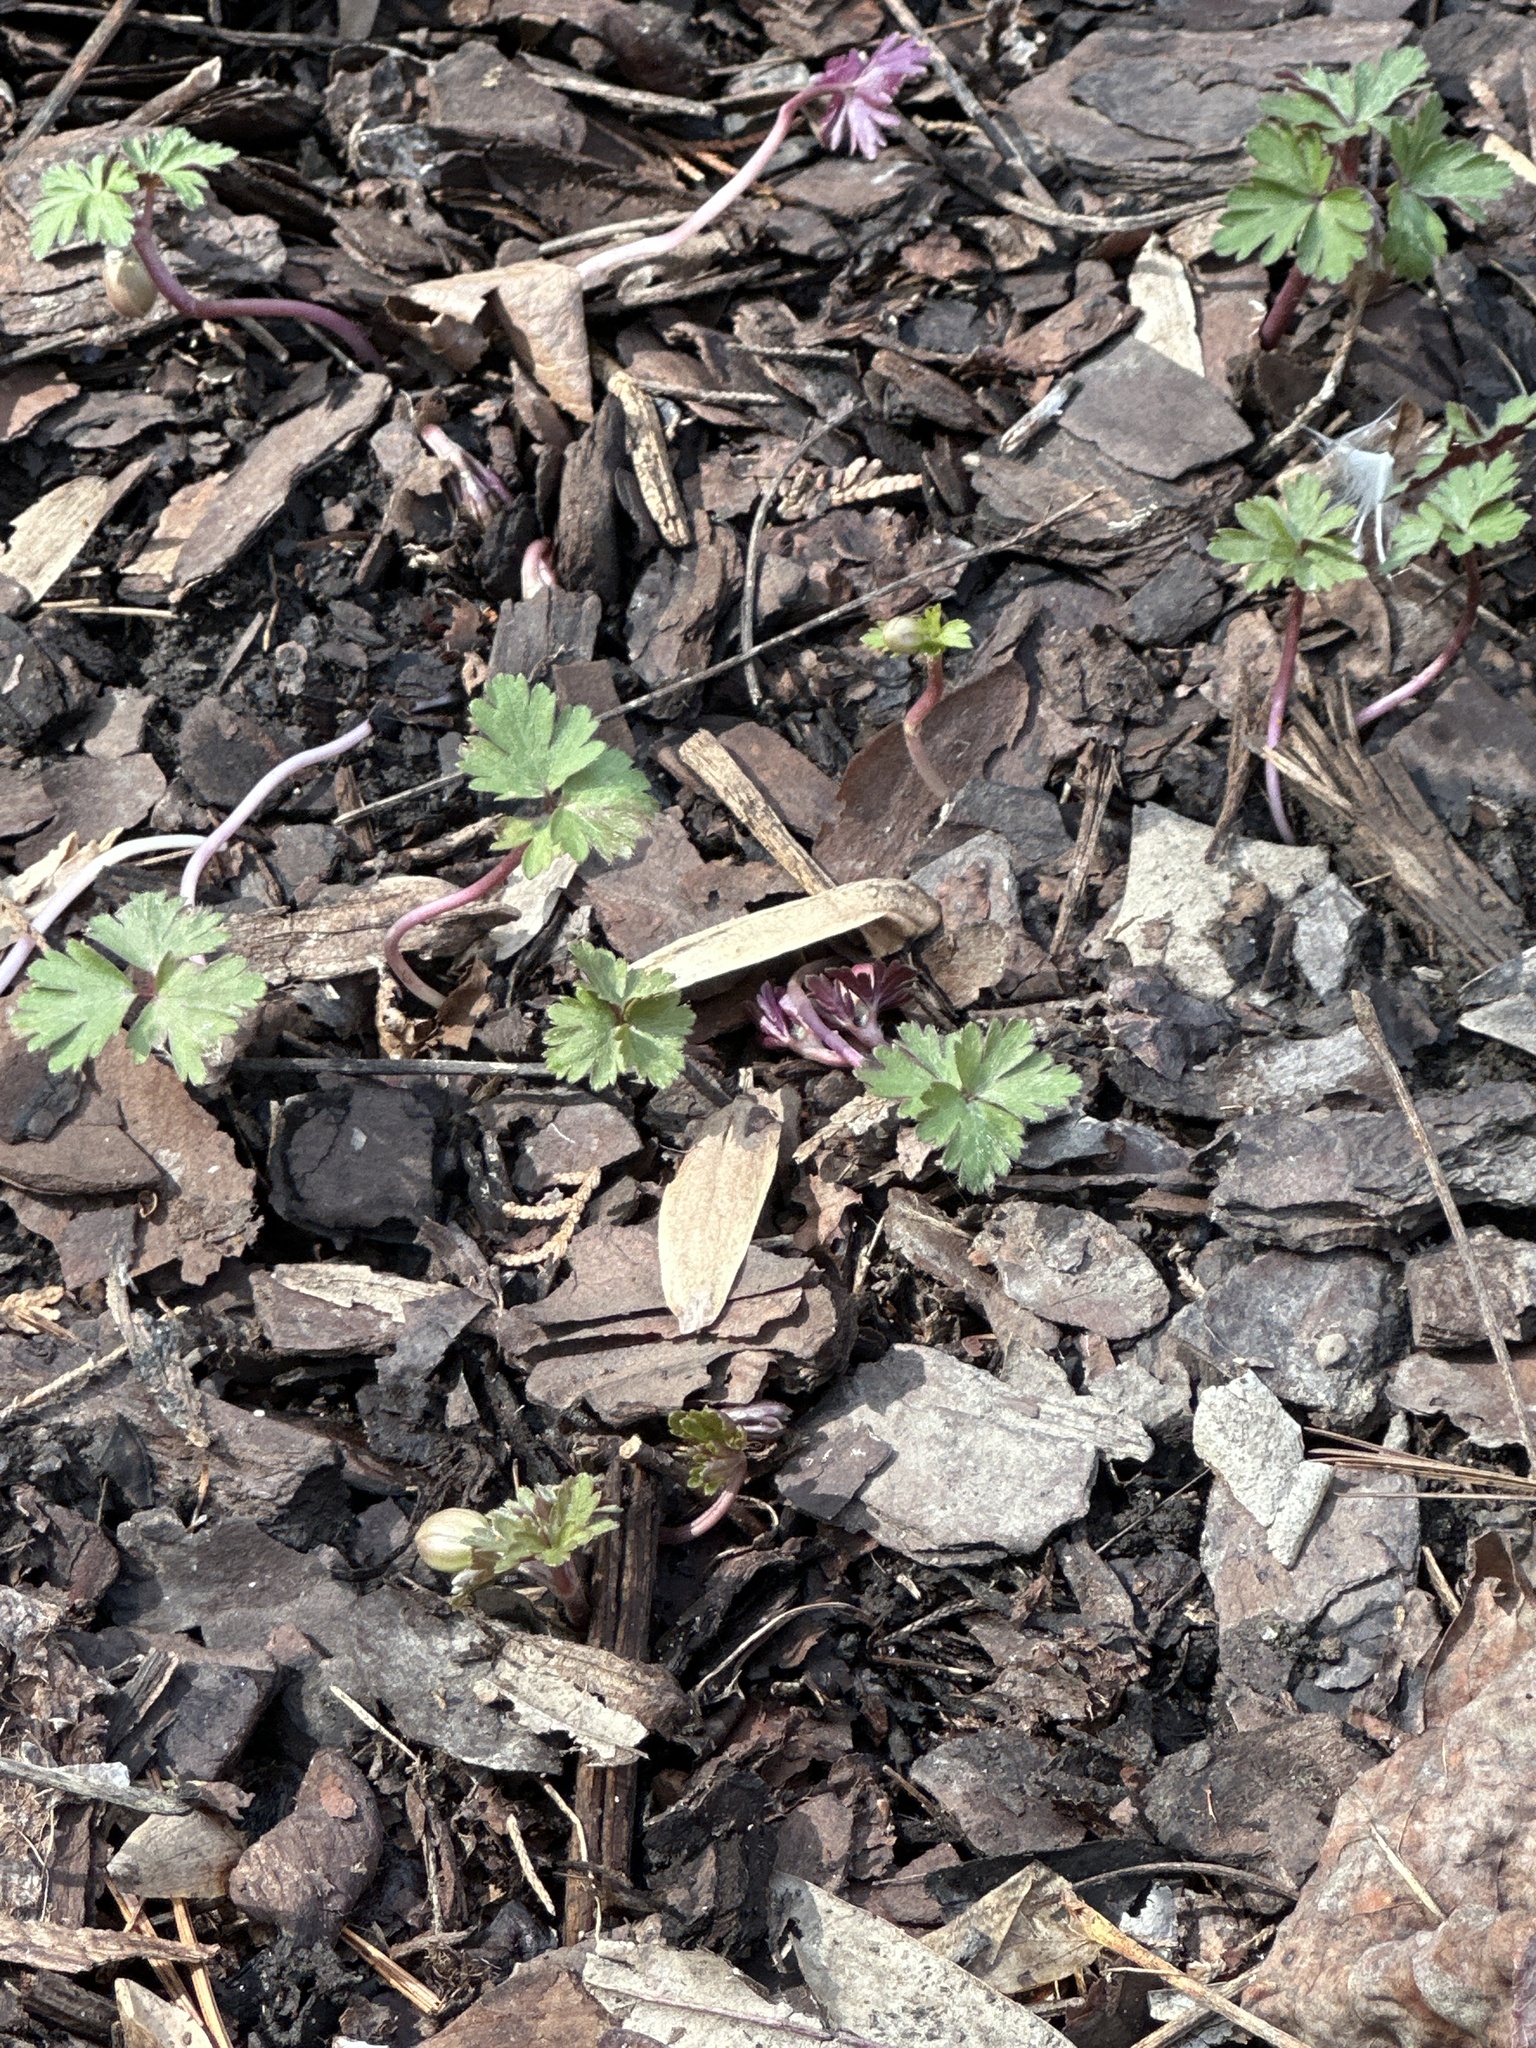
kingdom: Plantae
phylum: Tracheophyta
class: Magnoliopsida
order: Ranunculales
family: Ranunculaceae
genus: Anemone
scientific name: Anemone blanda
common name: Balkan anemone
